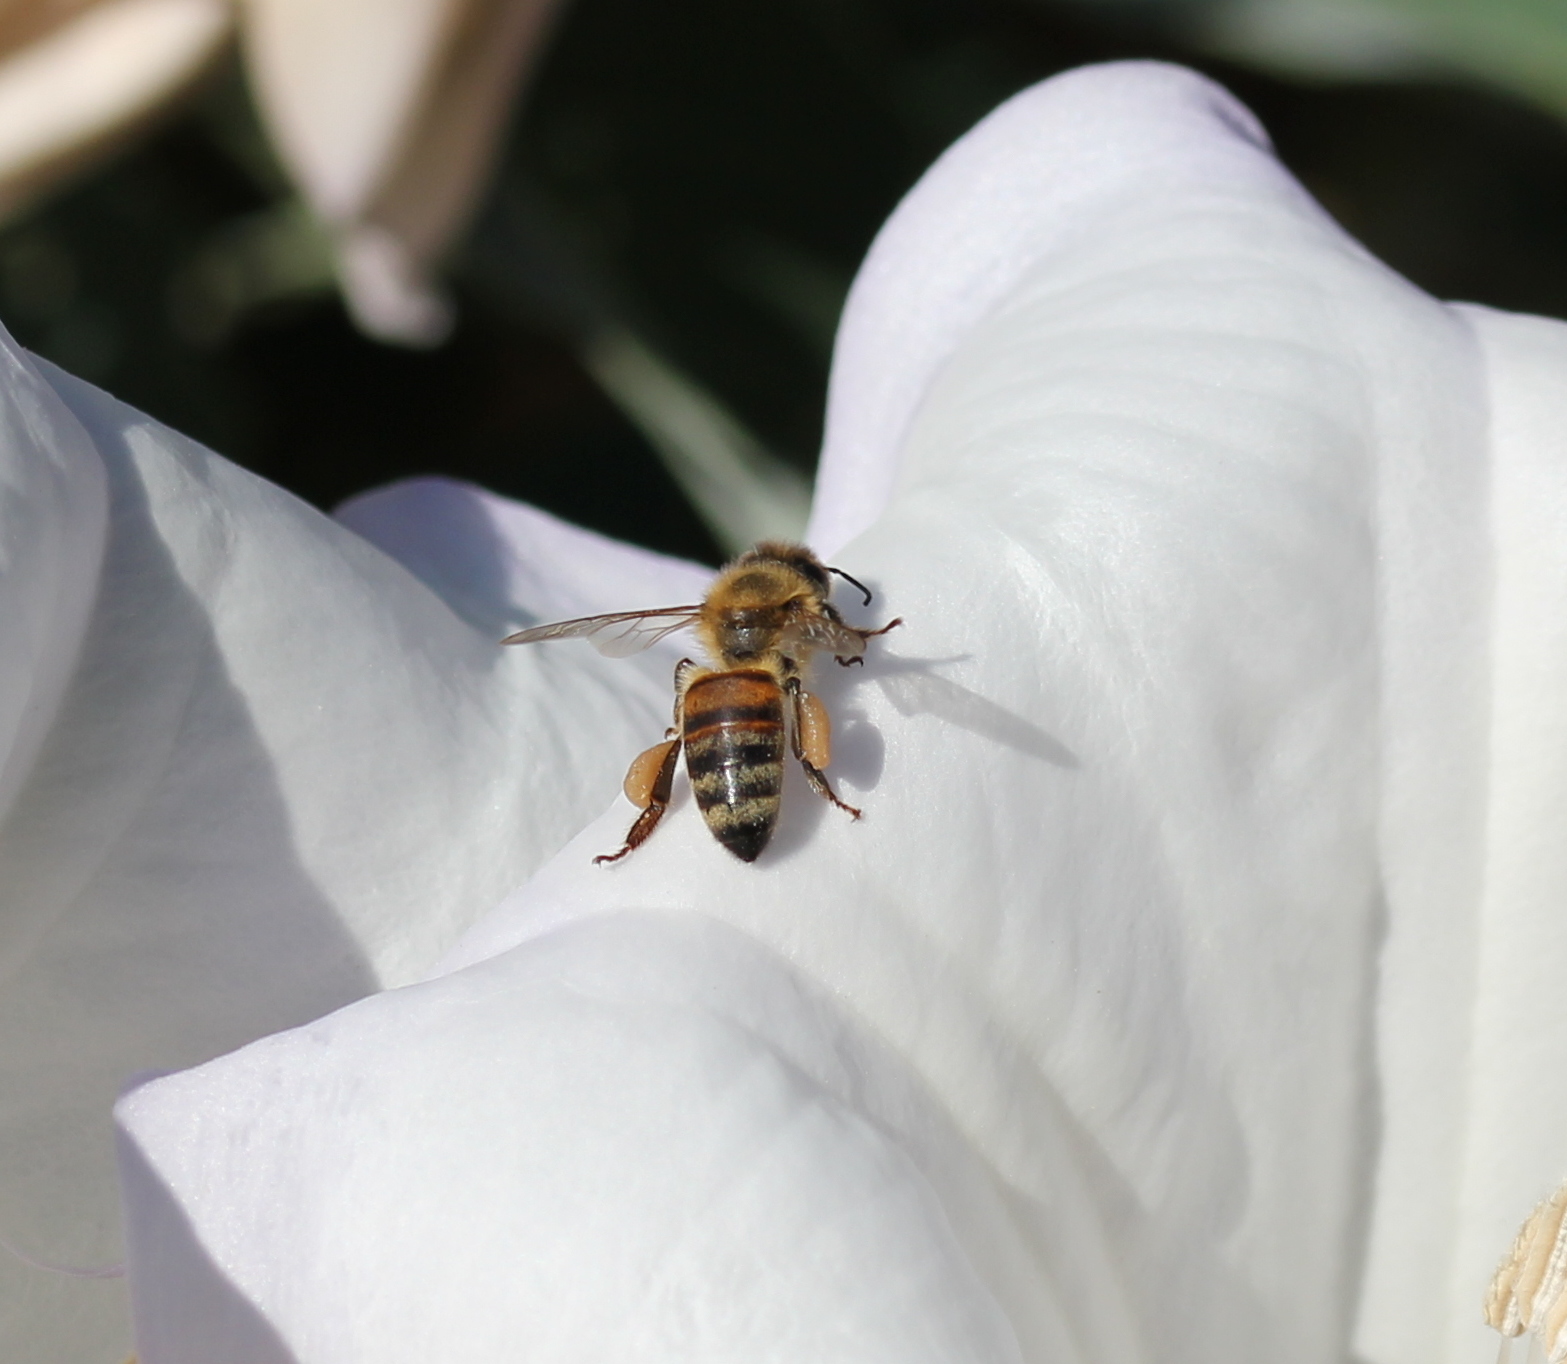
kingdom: Animalia
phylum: Arthropoda
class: Insecta
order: Hymenoptera
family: Apidae
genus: Apis
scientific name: Apis mellifera
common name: Honey bee
